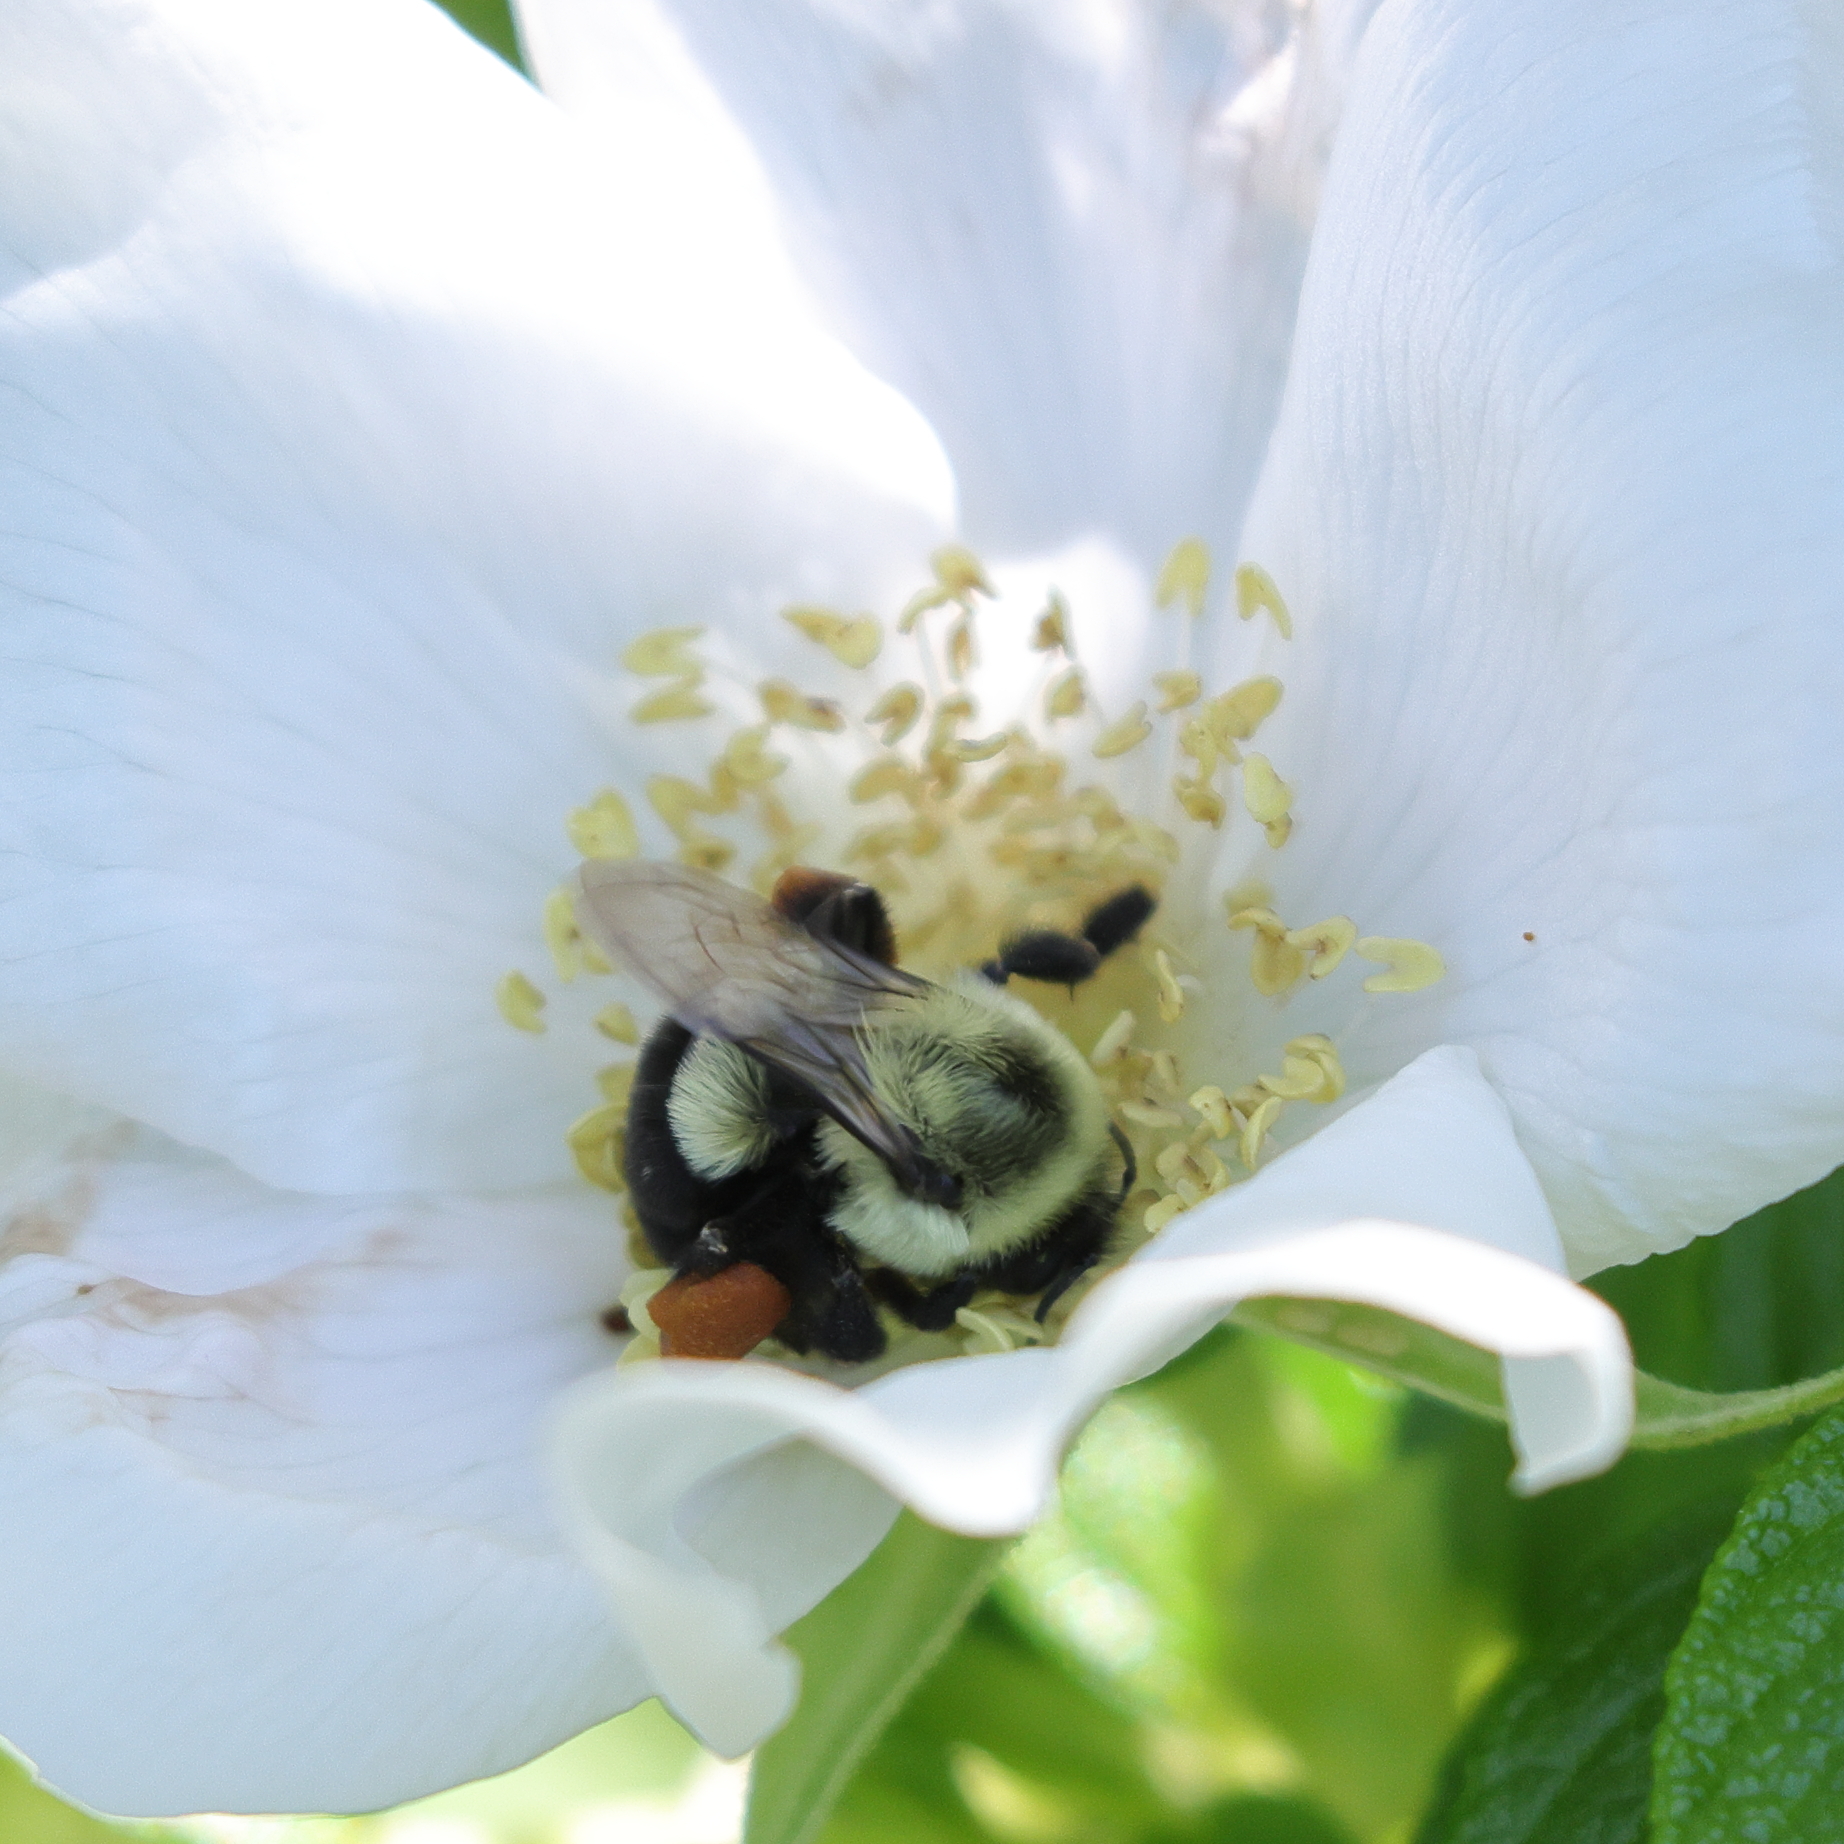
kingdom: Animalia
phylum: Arthropoda
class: Insecta
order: Hymenoptera
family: Apidae
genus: Bombus
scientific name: Bombus impatiens
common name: Common eastern bumble bee
